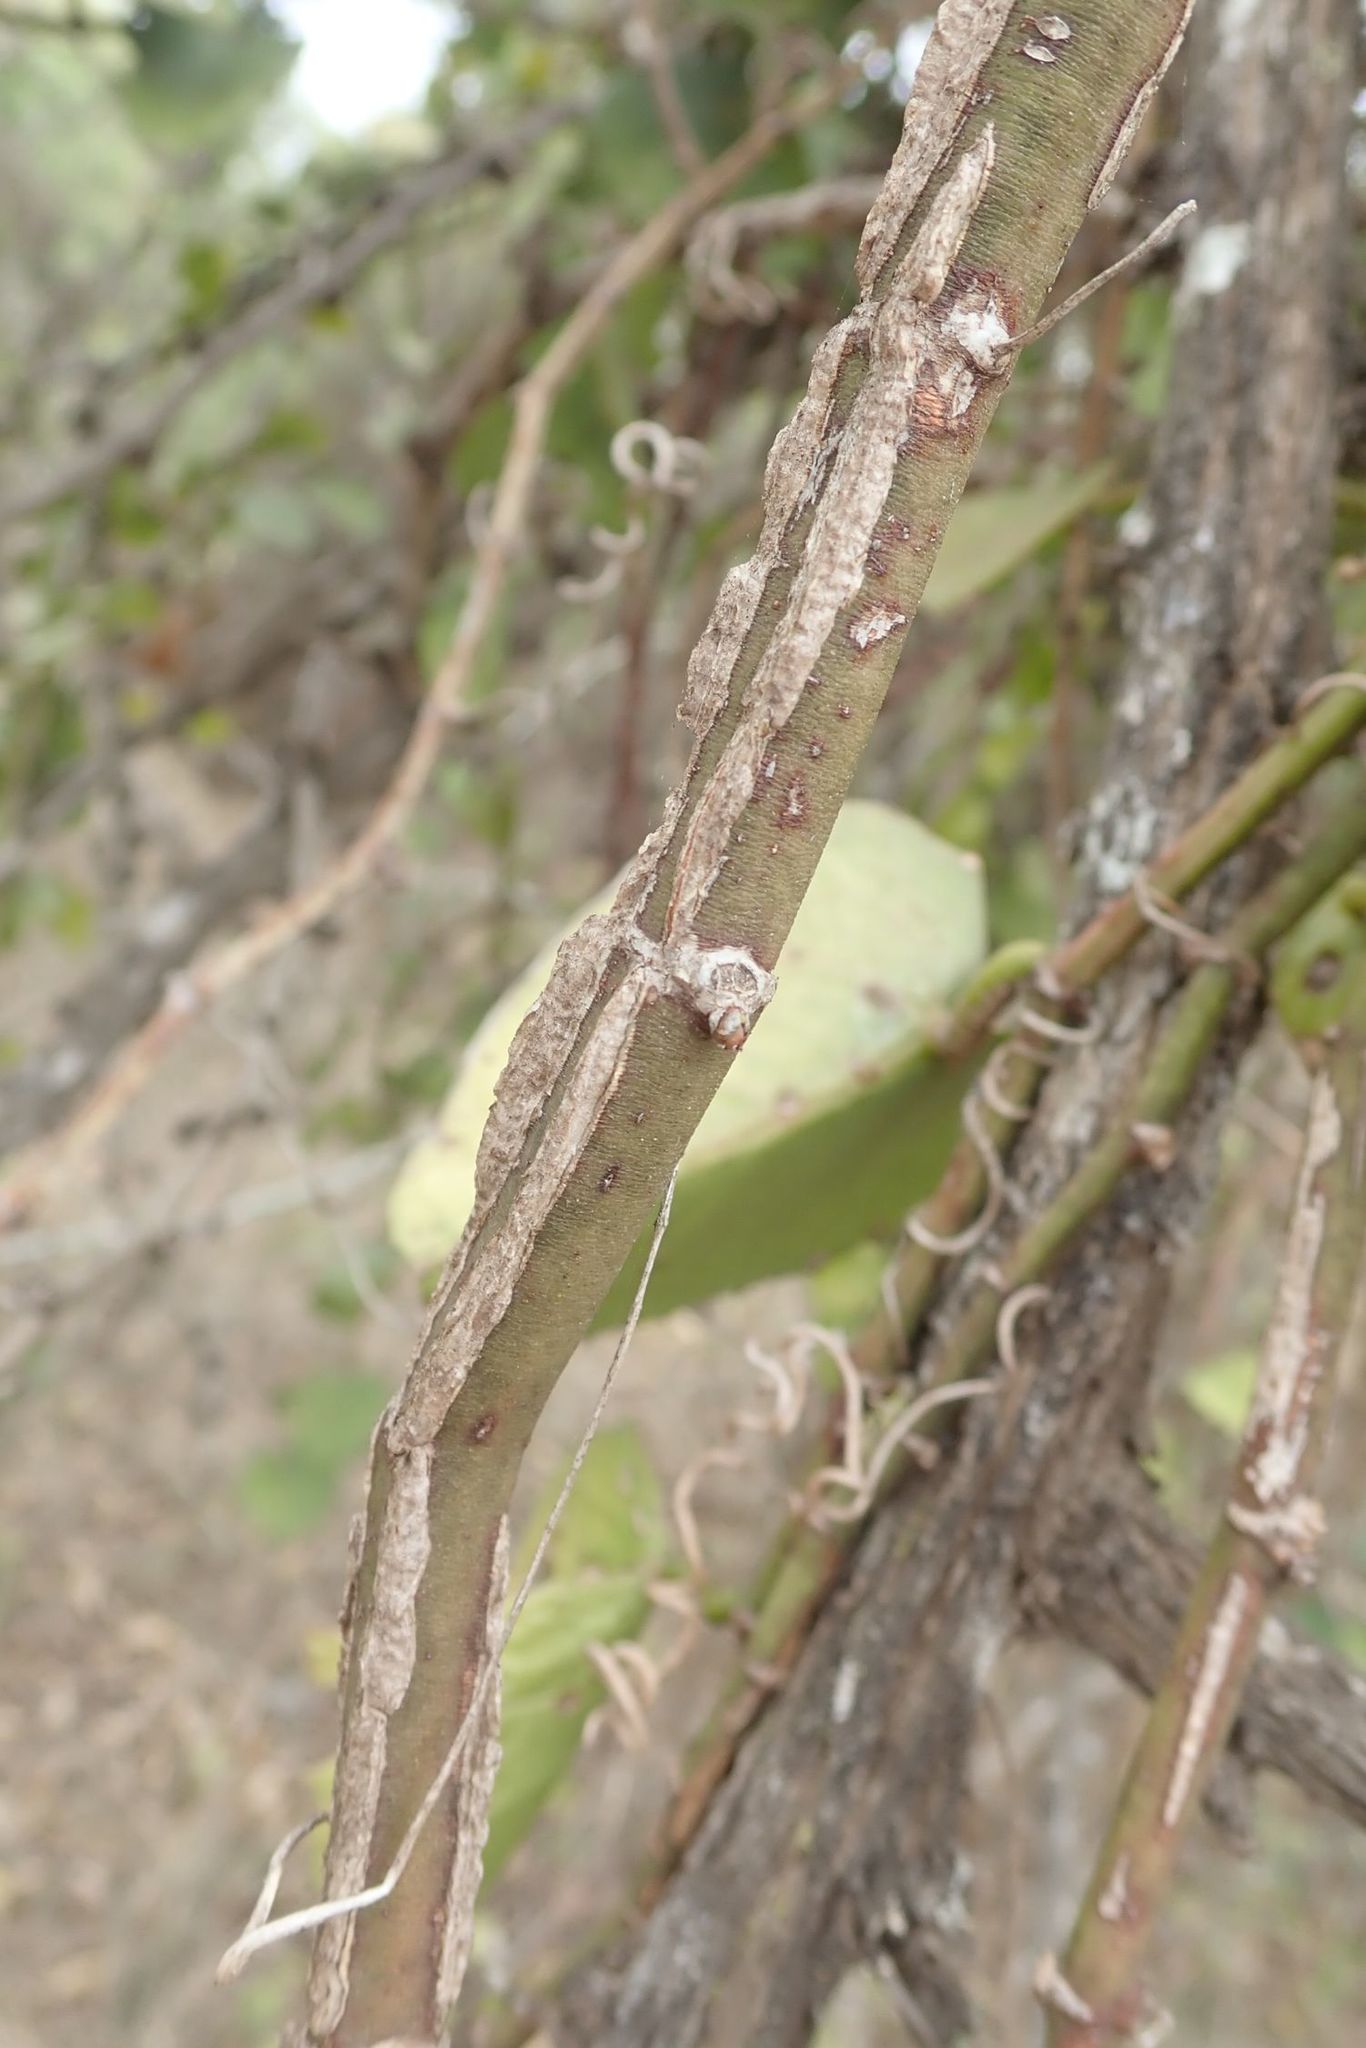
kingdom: Plantae
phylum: Tracheophyta
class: Magnoliopsida
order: Vitales
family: Vitaceae
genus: Cissus
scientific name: Cissus rotundifolia
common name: Arabian wax cissus
